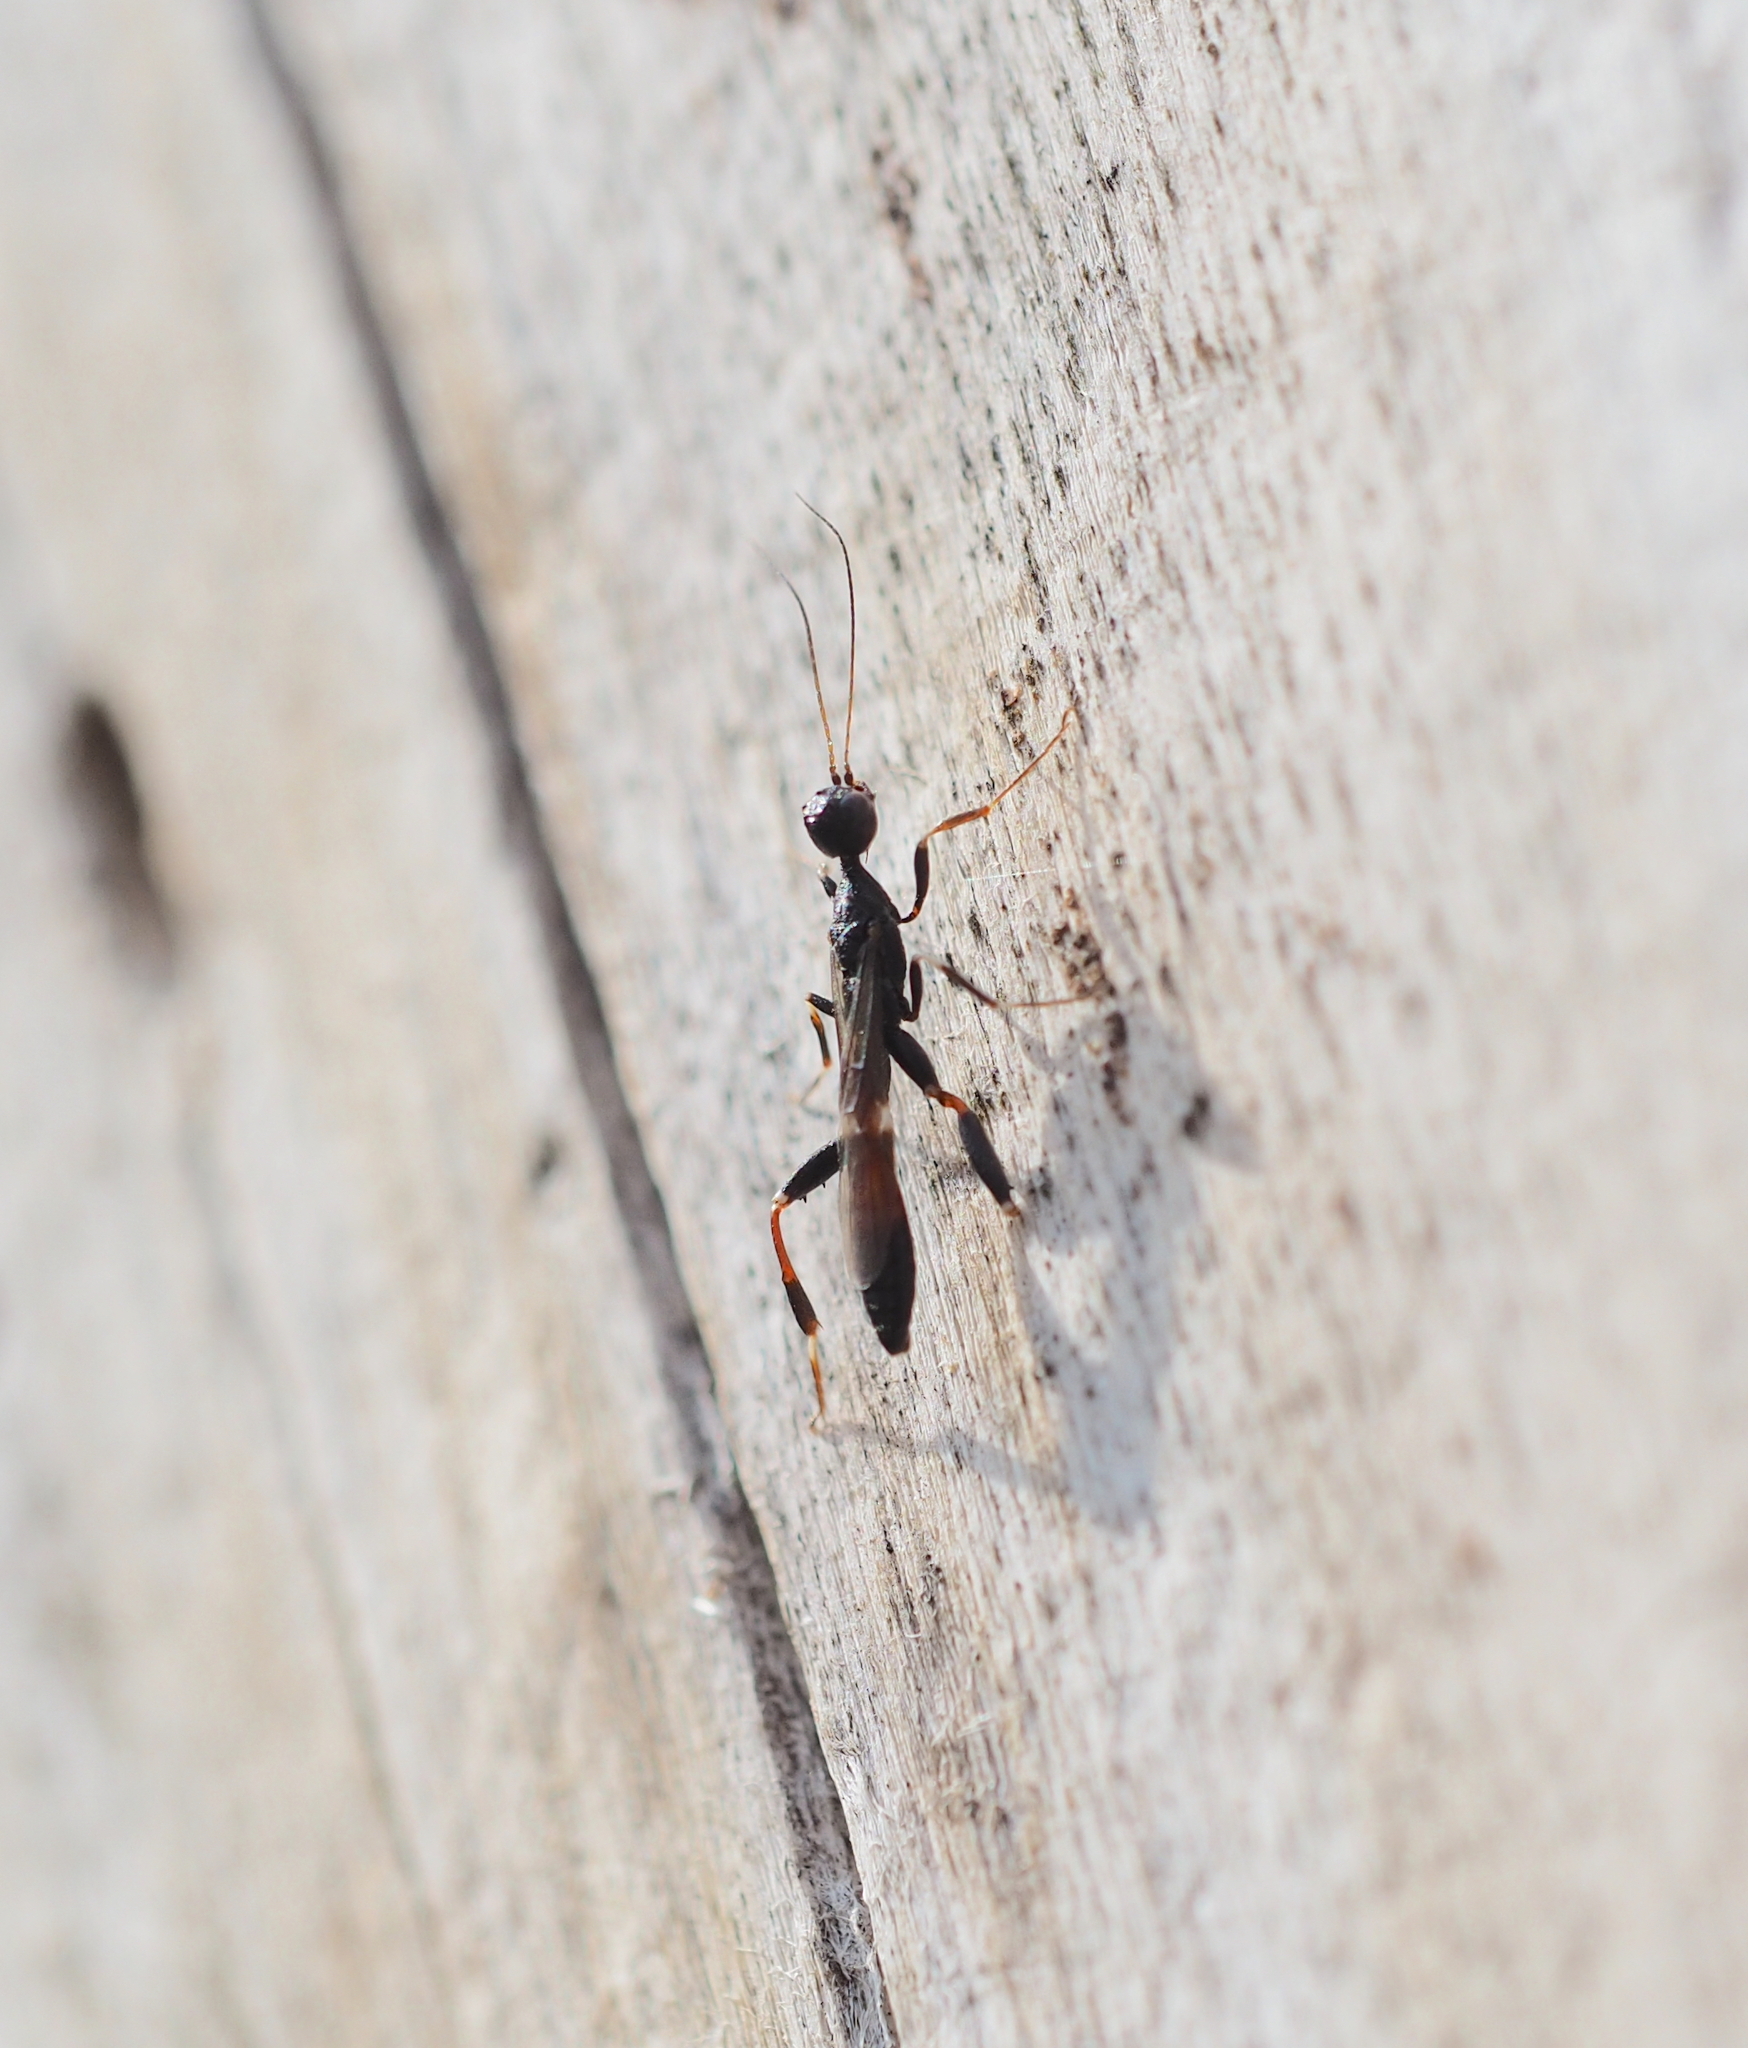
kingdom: Animalia
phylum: Arthropoda
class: Insecta
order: Hymenoptera
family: Stephanidae
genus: Stephanus
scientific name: Stephanus serrator
